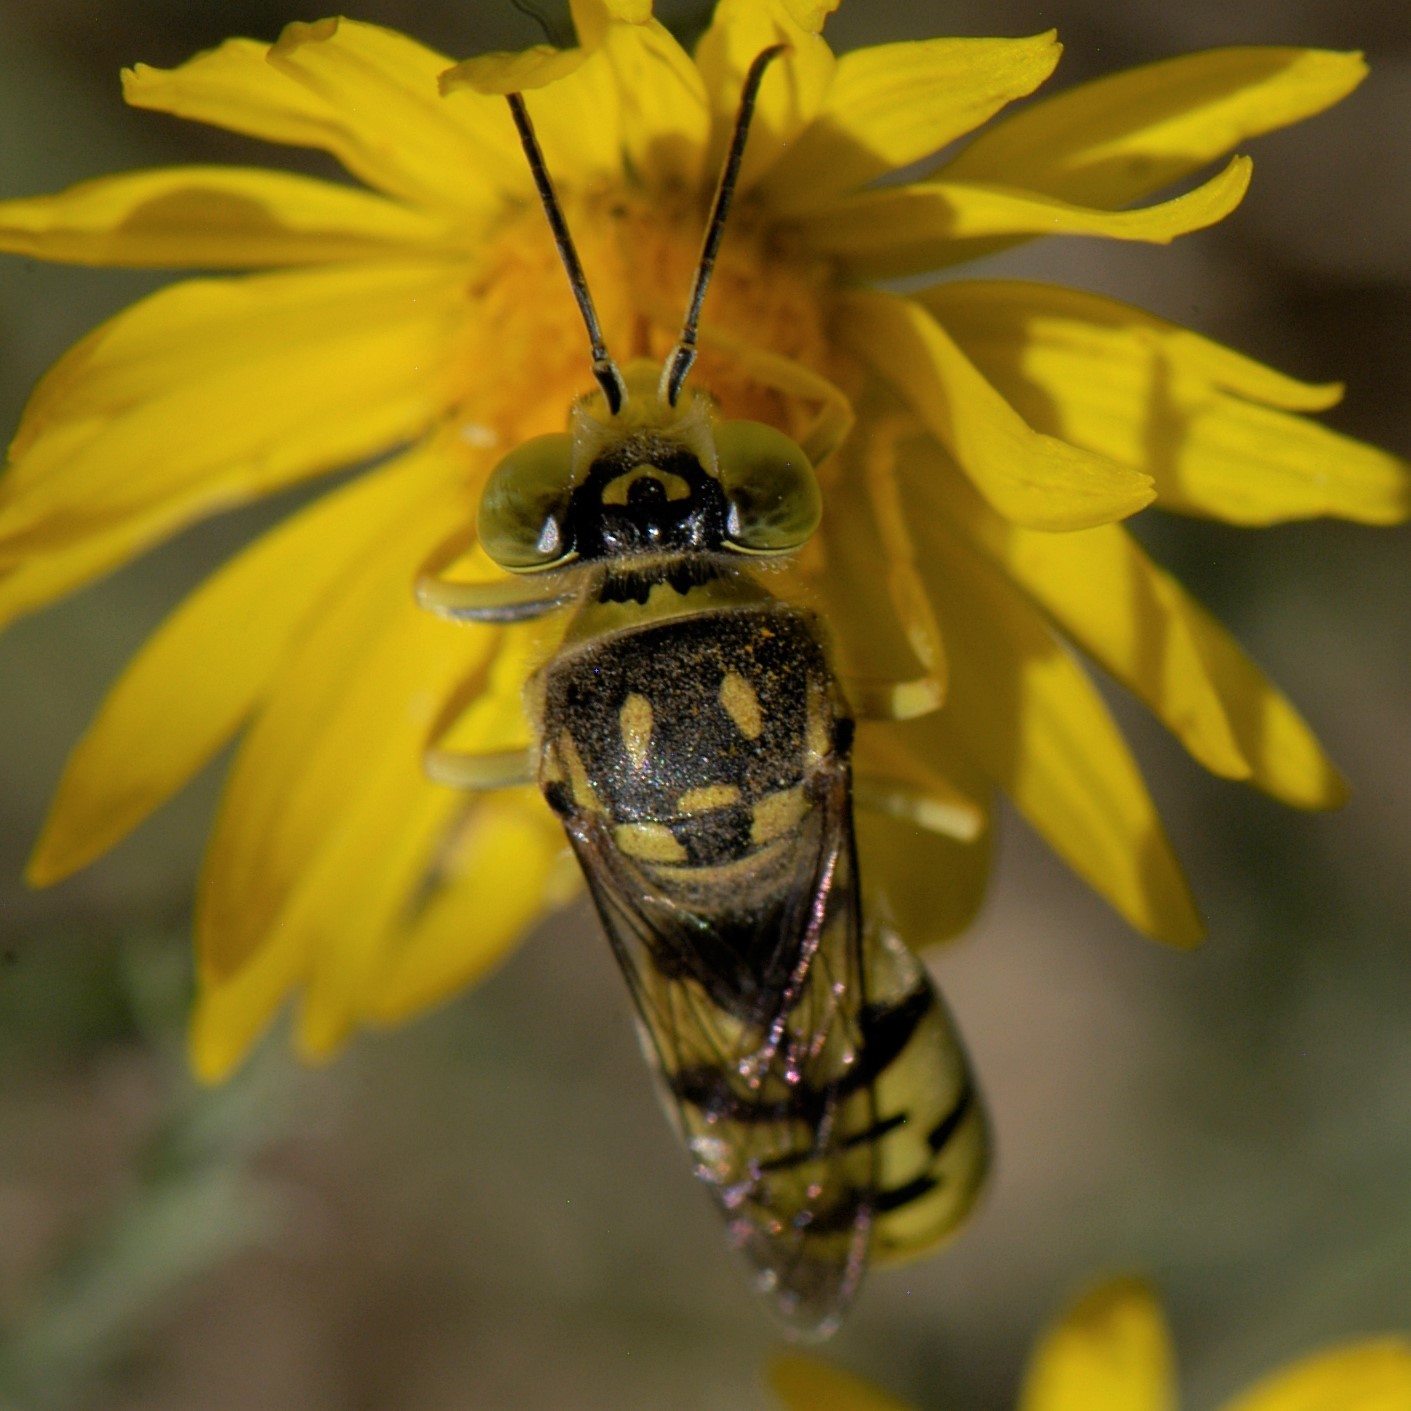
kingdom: Animalia
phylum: Arthropoda
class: Insecta
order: Hymenoptera
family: Crabronidae
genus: Steniolia
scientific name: Steniolia duplicata
